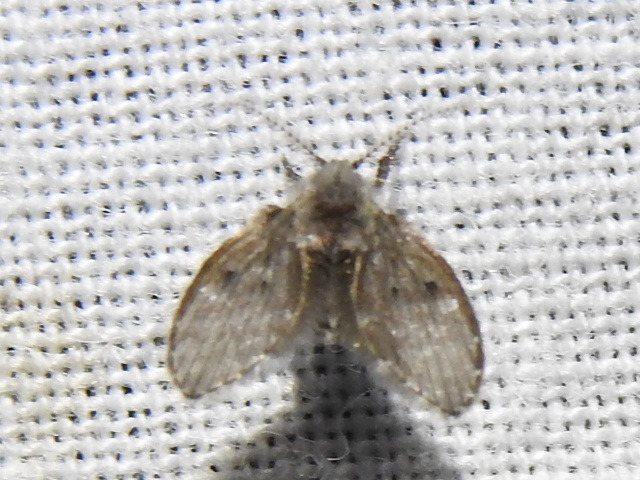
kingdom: Animalia
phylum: Arthropoda
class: Insecta
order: Diptera
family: Psychodidae
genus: Clogmia
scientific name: Clogmia albipunctatus
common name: White-spotted moth fly
